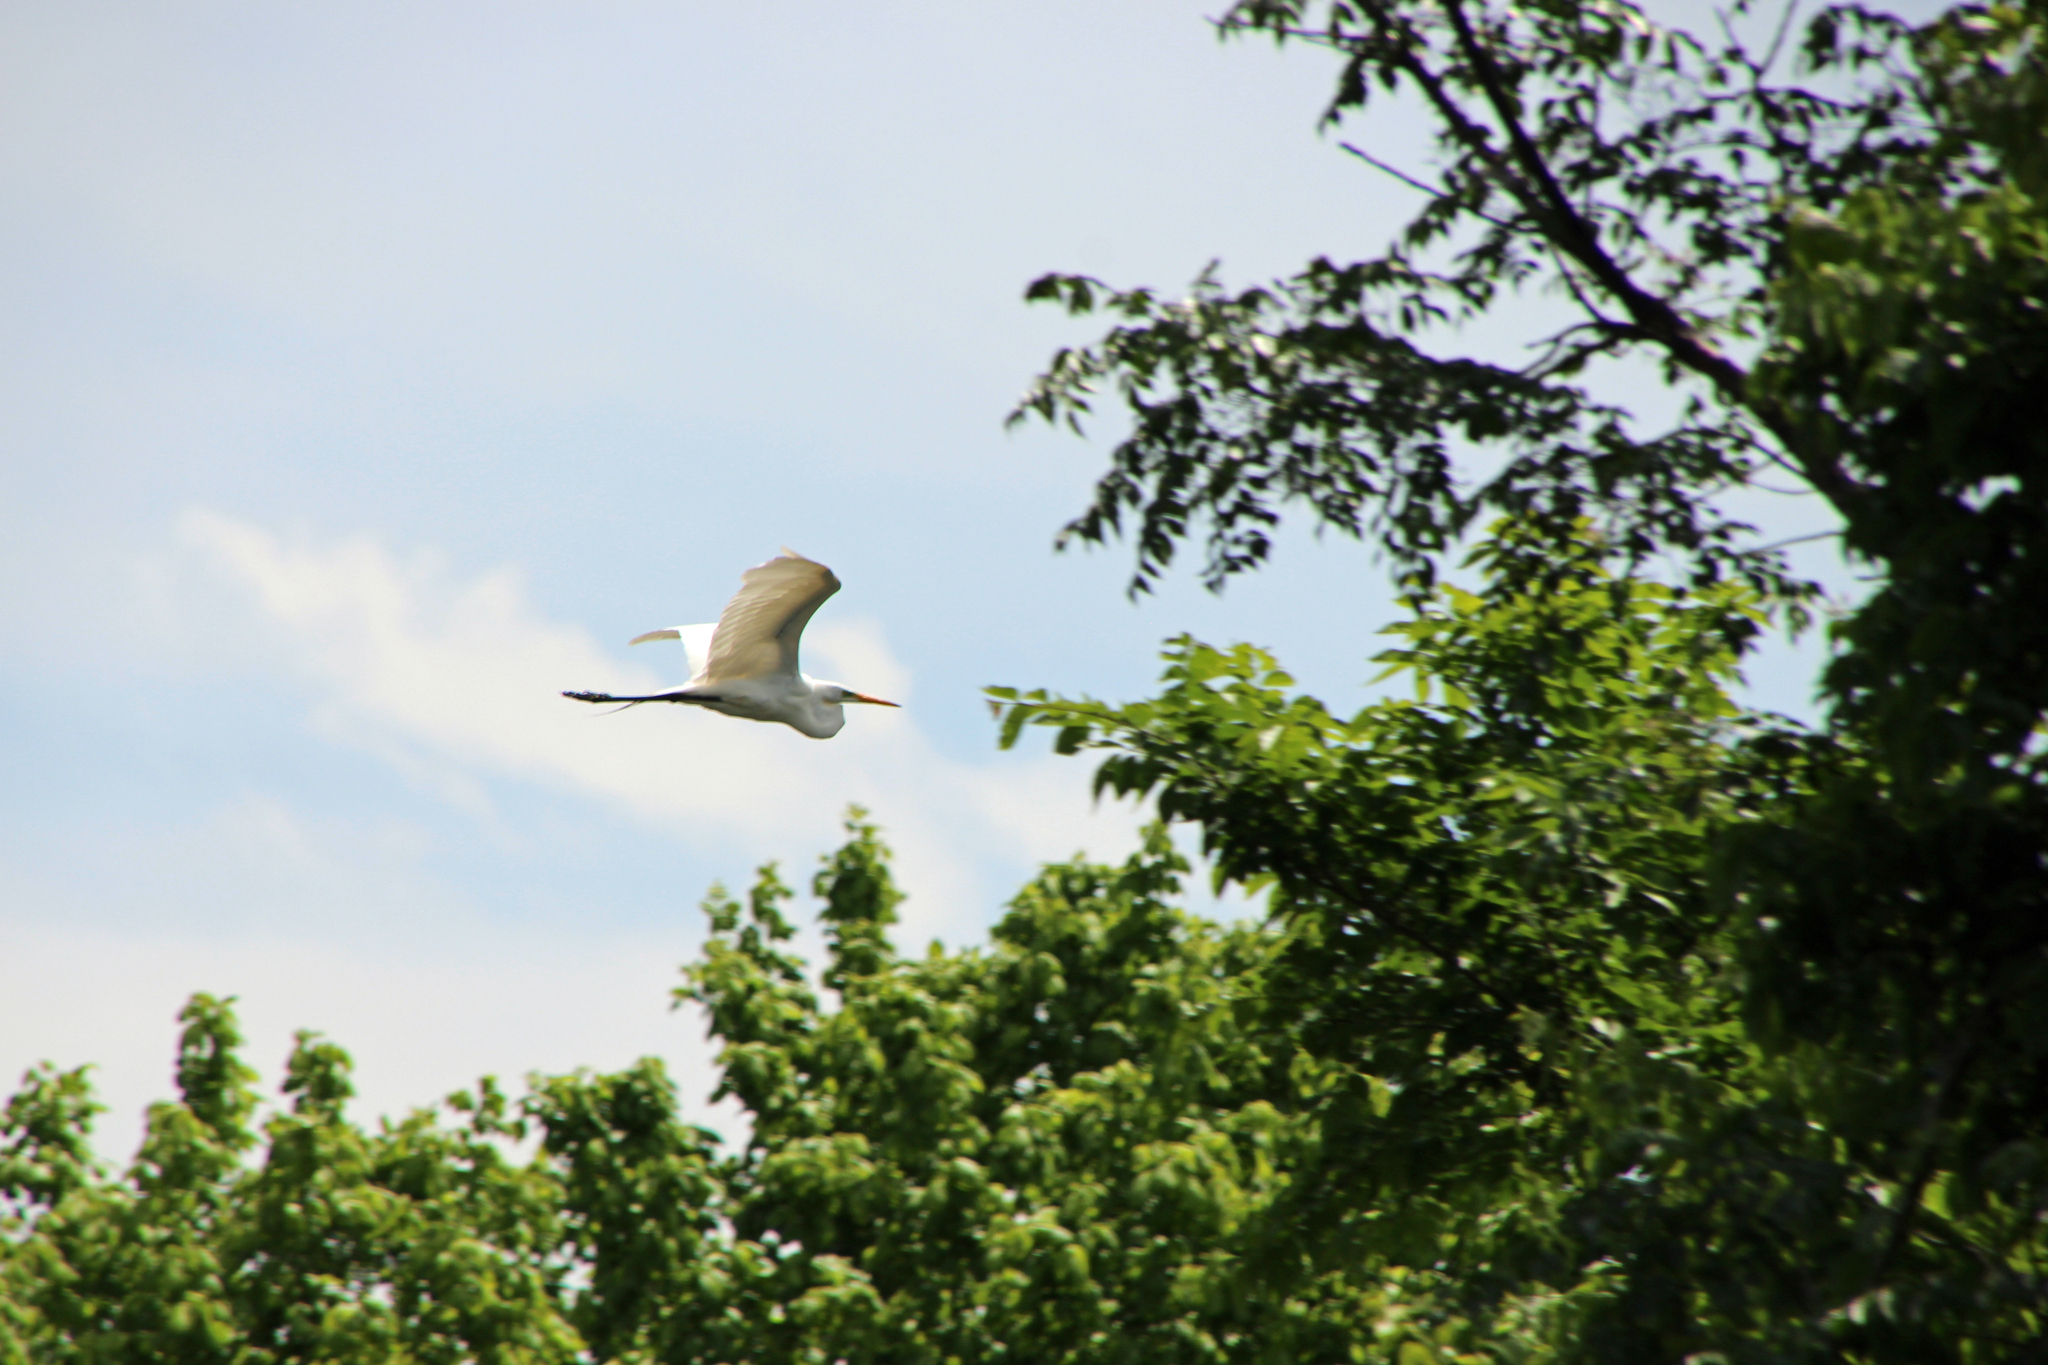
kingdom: Animalia
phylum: Chordata
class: Aves
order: Pelecaniformes
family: Ardeidae
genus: Ardea
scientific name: Ardea alba
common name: Great egret
